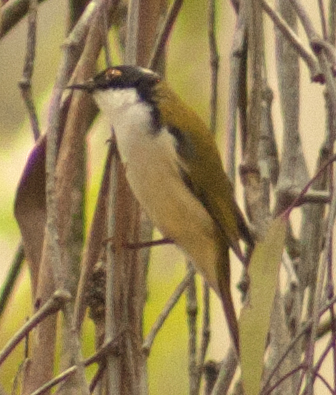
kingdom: Animalia
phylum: Chordata
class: Aves
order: Passeriformes
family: Meliphagidae
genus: Melithreptus
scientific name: Melithreptus lunatus
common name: White-naped honeyeater
